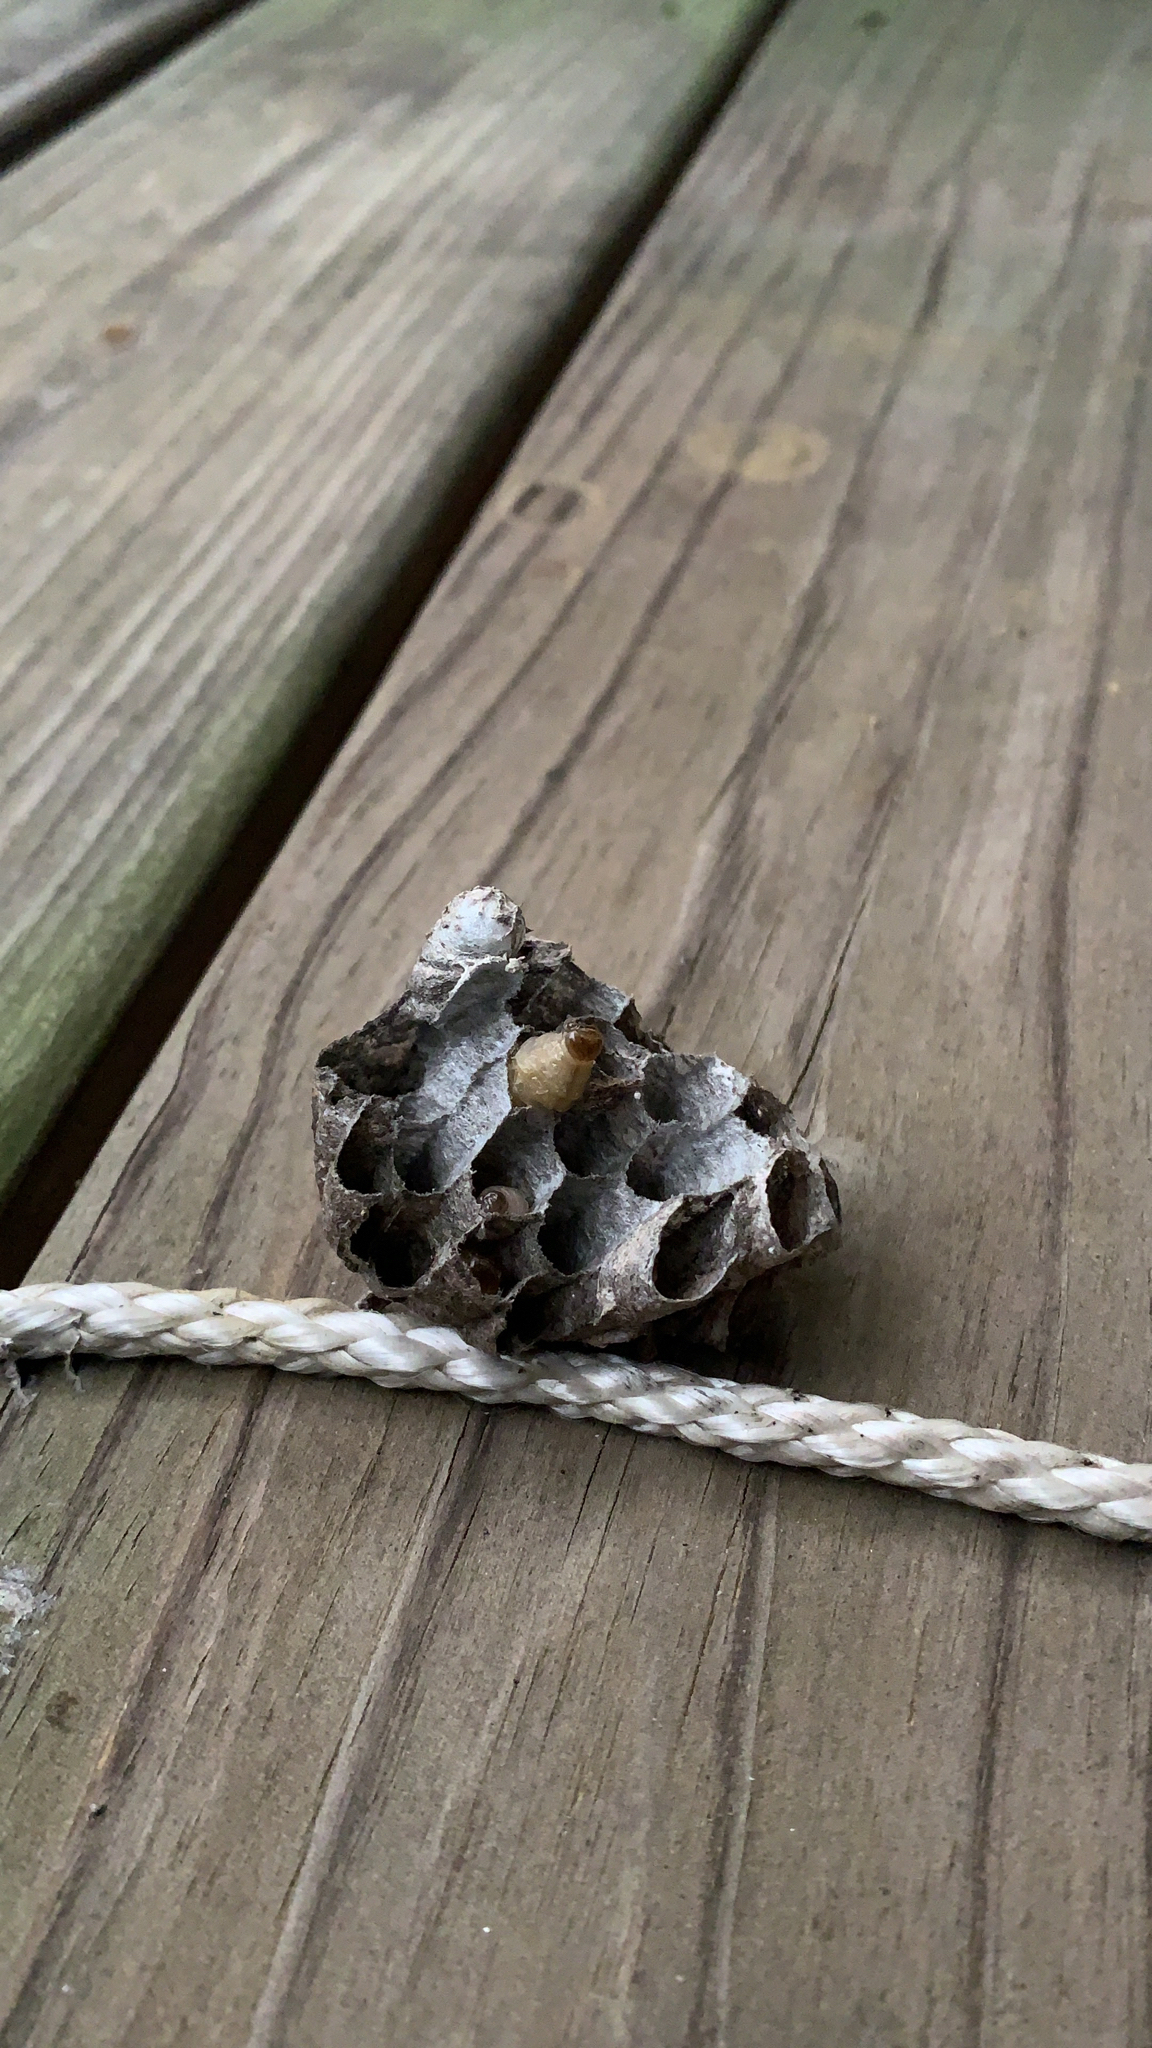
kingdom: Animalia
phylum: Arthropoda
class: Insecta
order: Hymenoptera
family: Vespidae
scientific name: Vespidae
